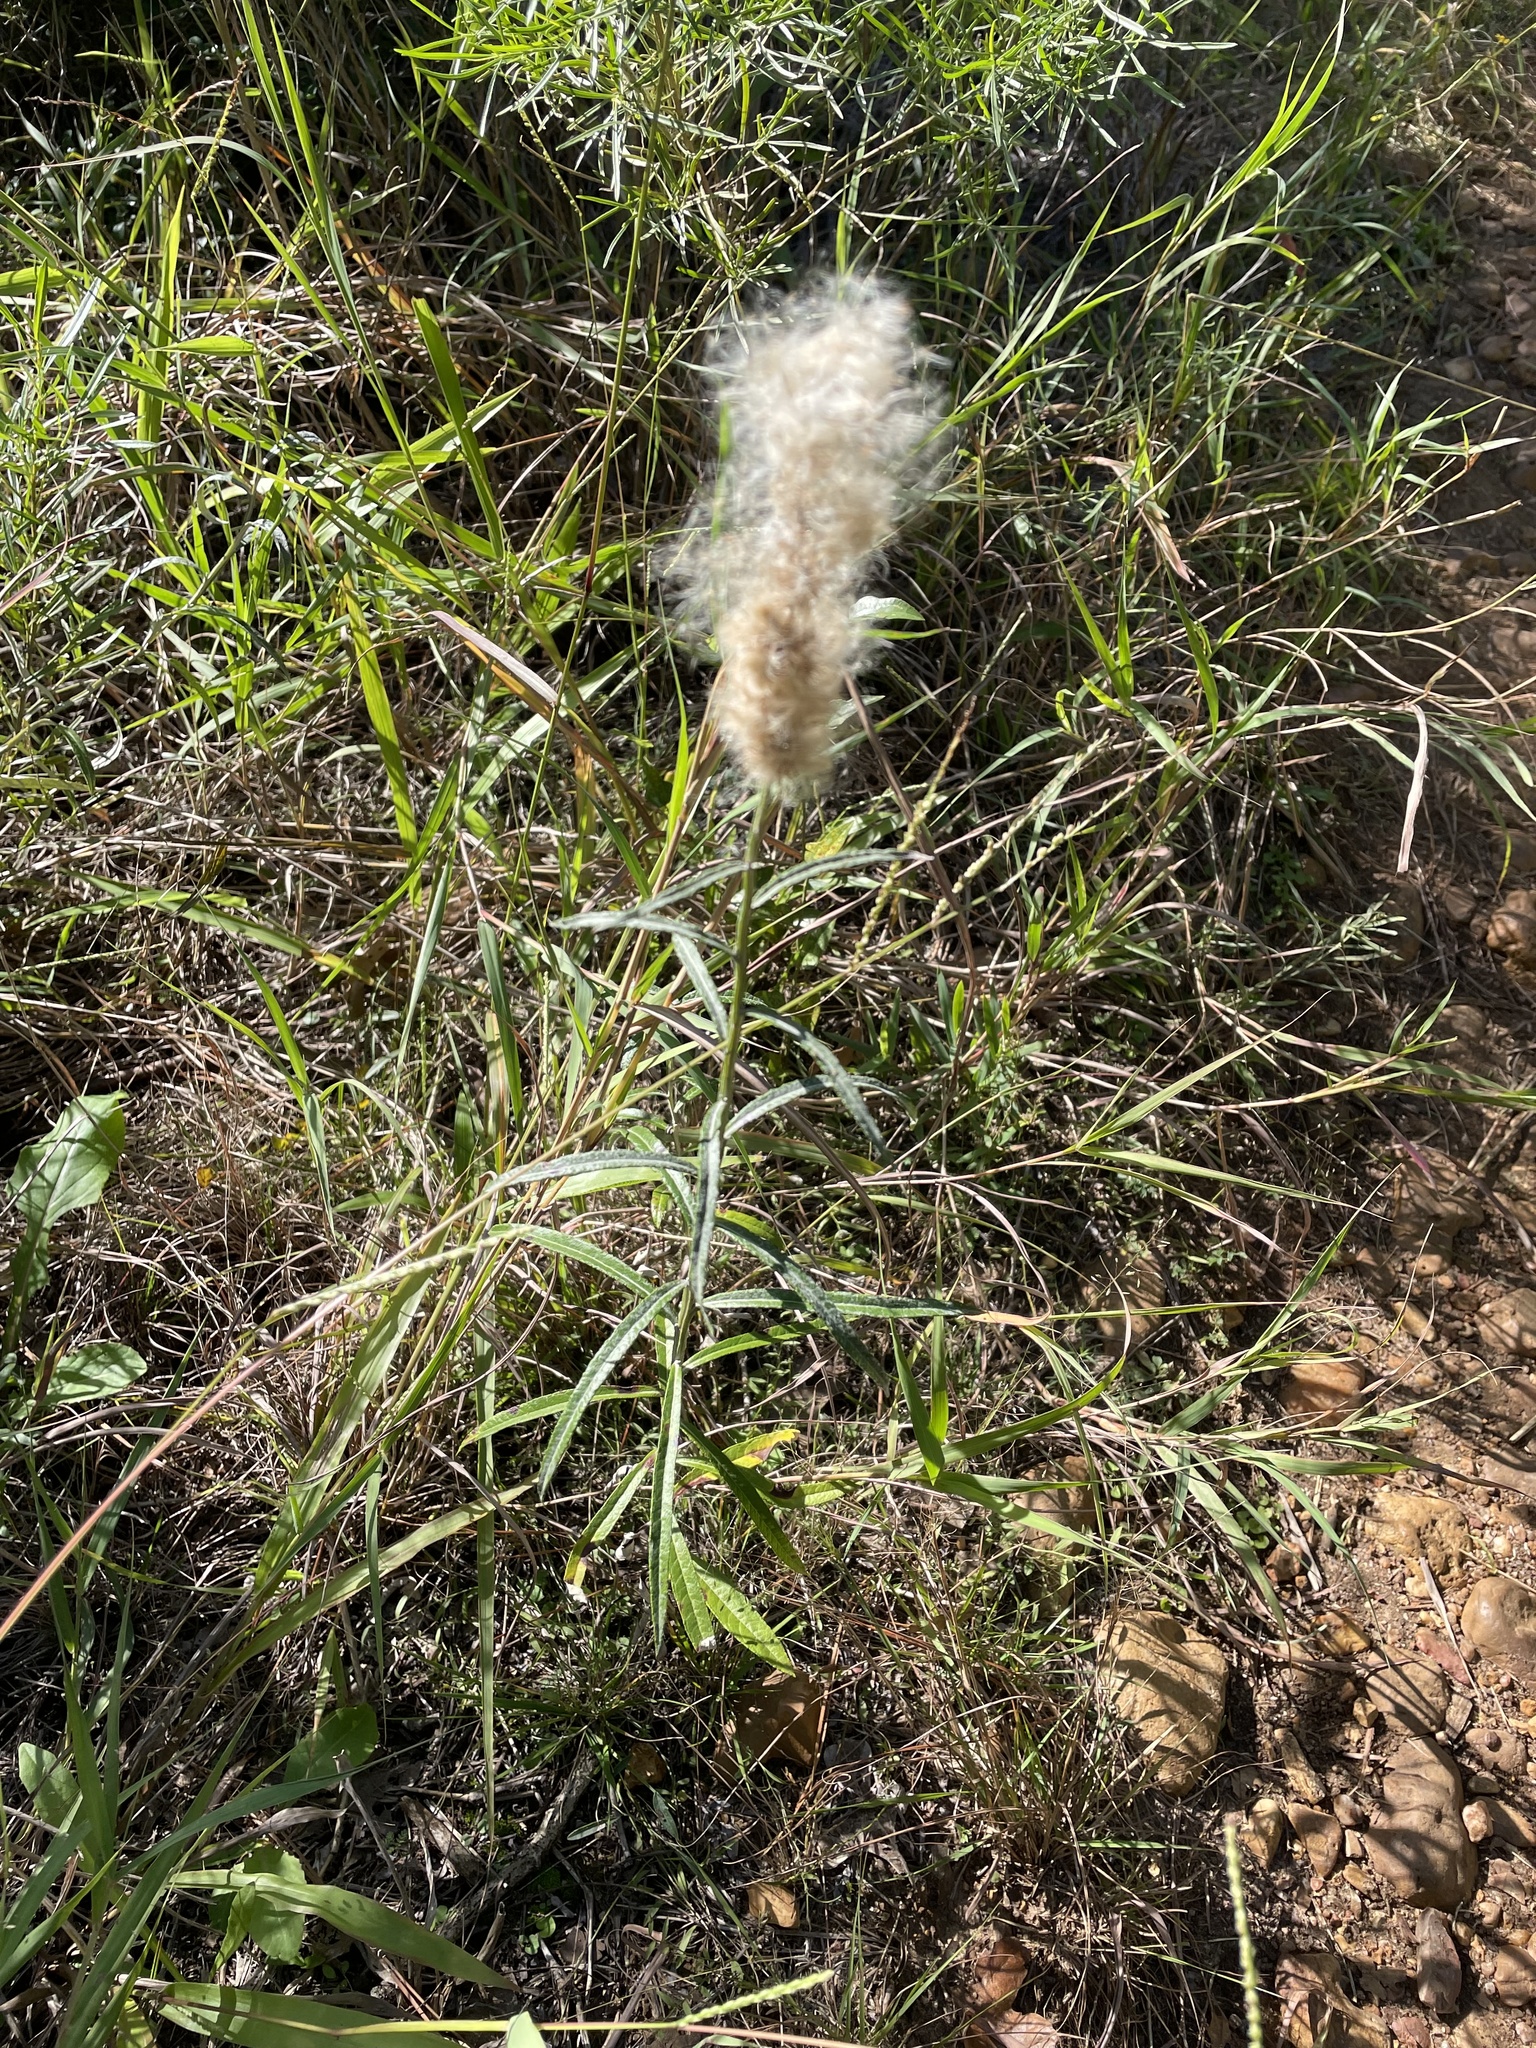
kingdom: Plantae
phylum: Tracheophyta
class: Magnoliopsida
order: Asterales
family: Asteraceae
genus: Pterocaulon
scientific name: Pterocaulon virgatum
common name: Wand blackroot
